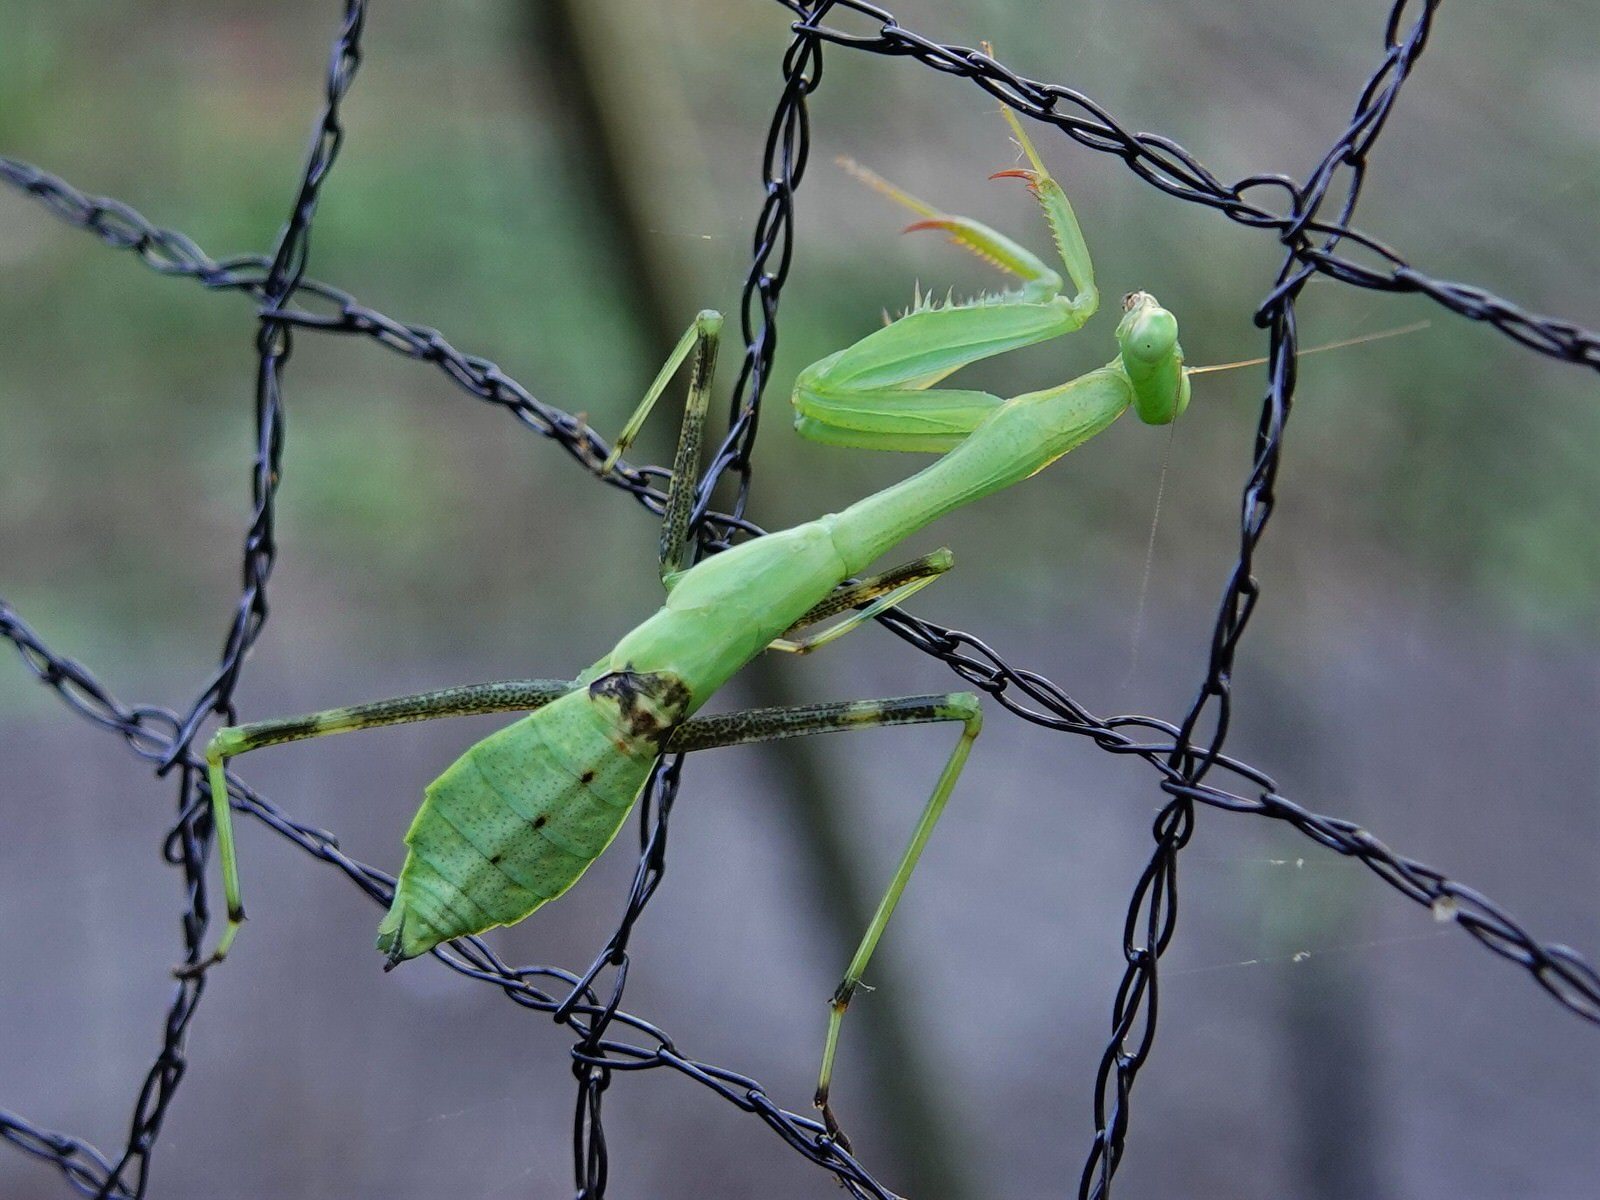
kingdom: Animalia
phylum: Arthropoda
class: Insecta
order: Mantodea
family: Miomantidae
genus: Miomantis
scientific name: Miomantis caffra
